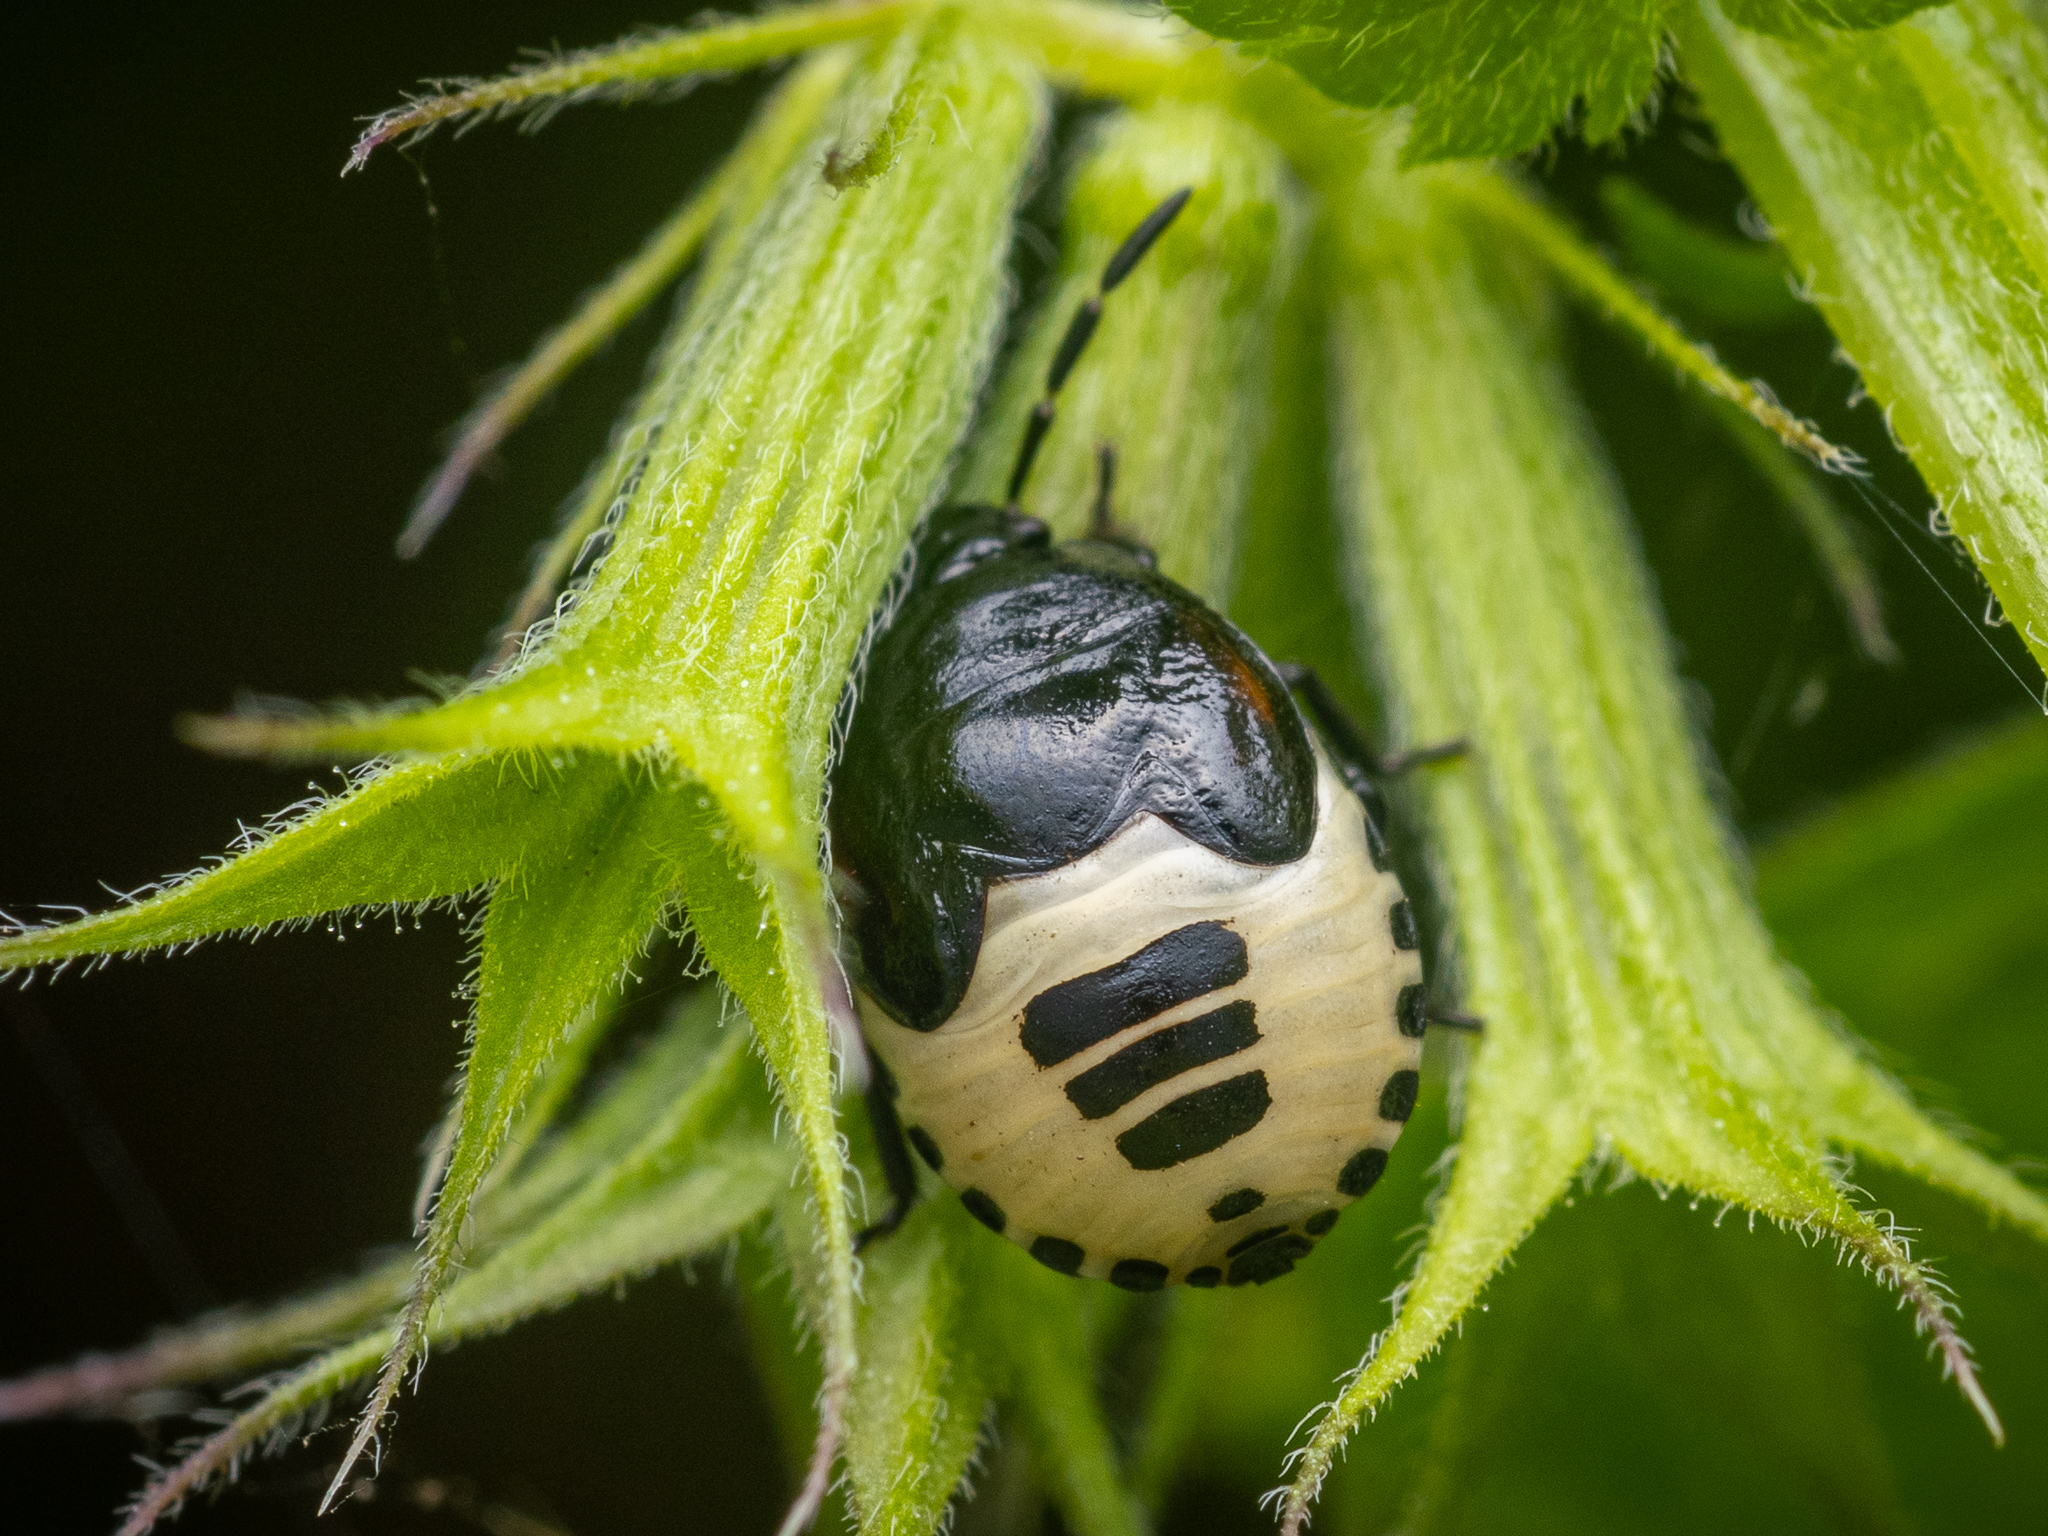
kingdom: Animalia
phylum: Arthropoda
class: Insecta
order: Hemiptera
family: Cydnidae
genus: Tritomegas
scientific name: Tritomegas sexmaculatus
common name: Rambur's pied shieldbug
